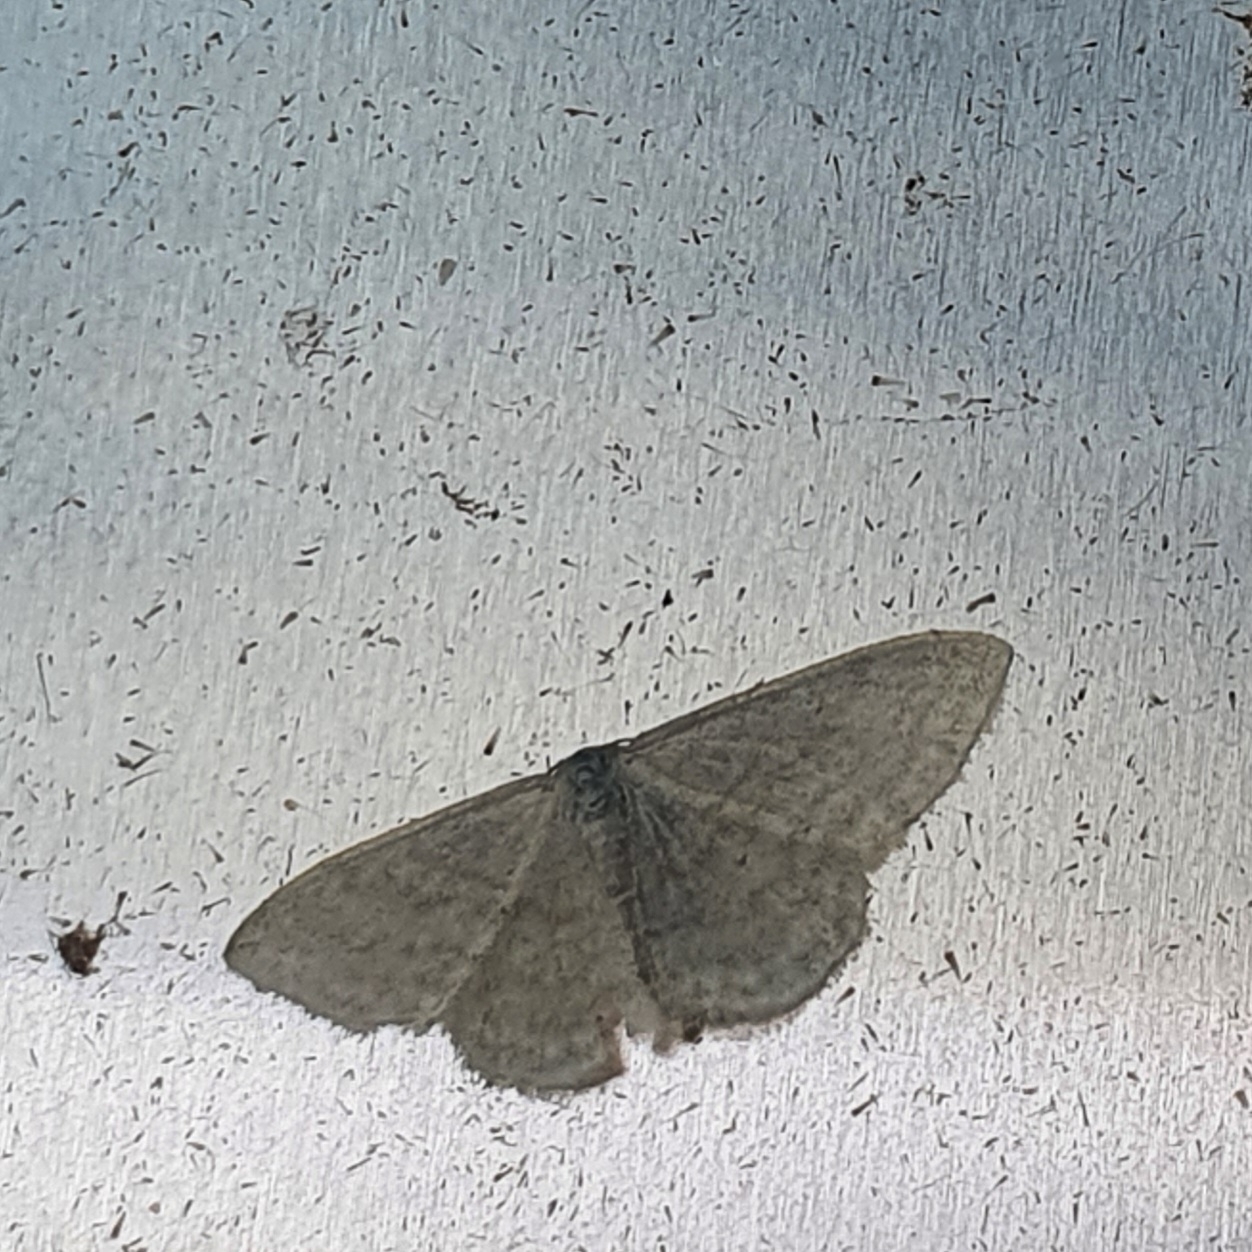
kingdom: Animalia
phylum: Arthropoda
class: Insecta
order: Lepidoptera
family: Geometridae
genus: Idaea
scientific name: Idaea subsericeata
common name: Satin wave
